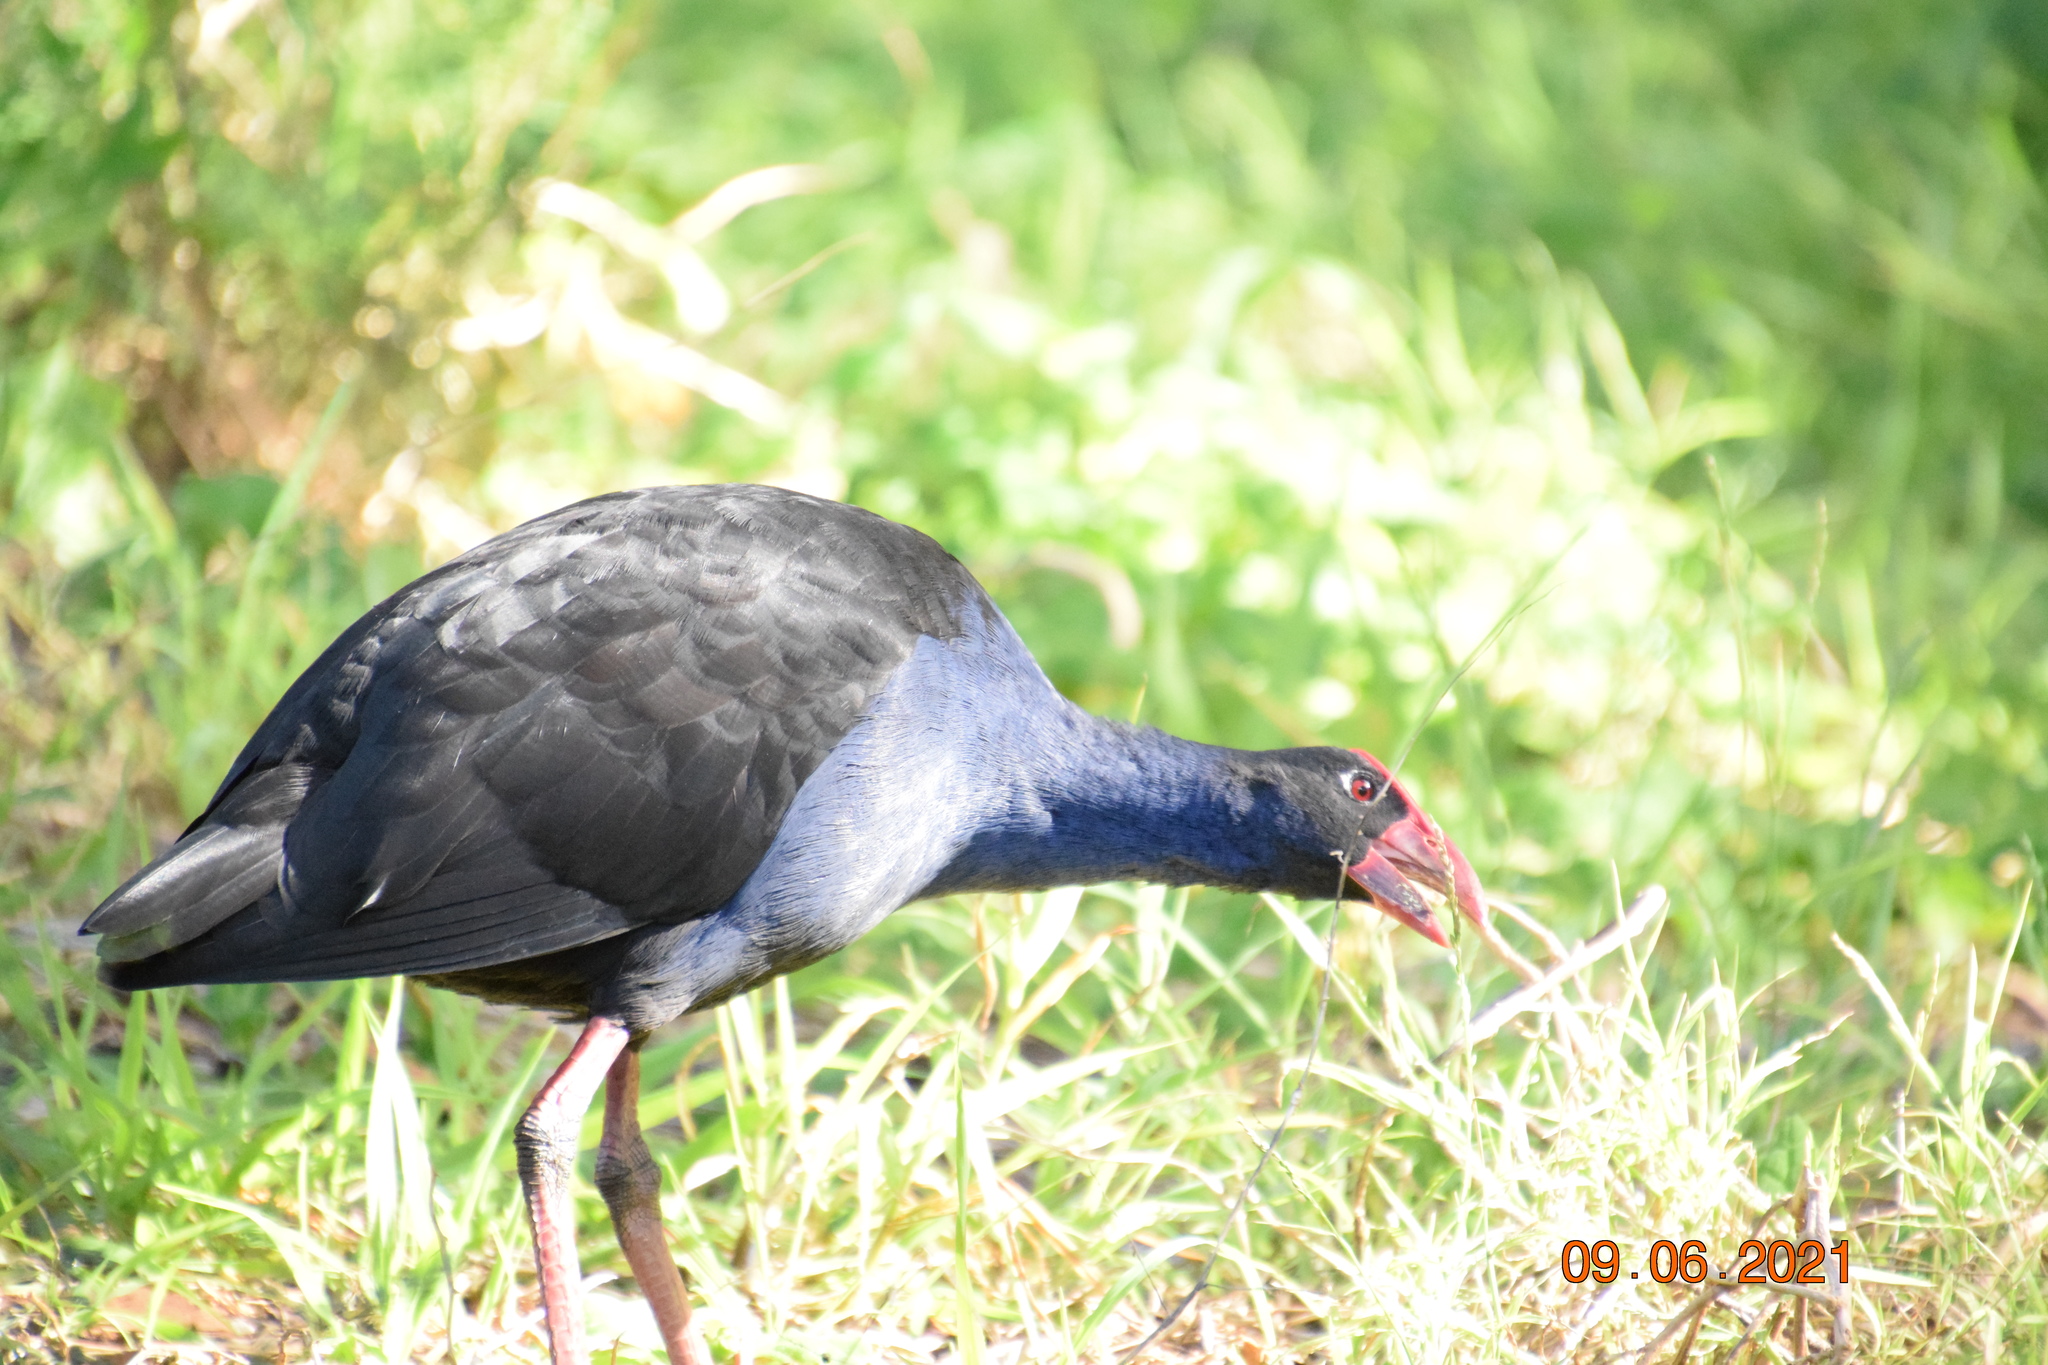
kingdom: Animalia
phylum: Chordata
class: Aves
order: Gruiformes
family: Rallidae
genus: Porphyrio
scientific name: Porphyrio melanotus
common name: Australasian swamphen
